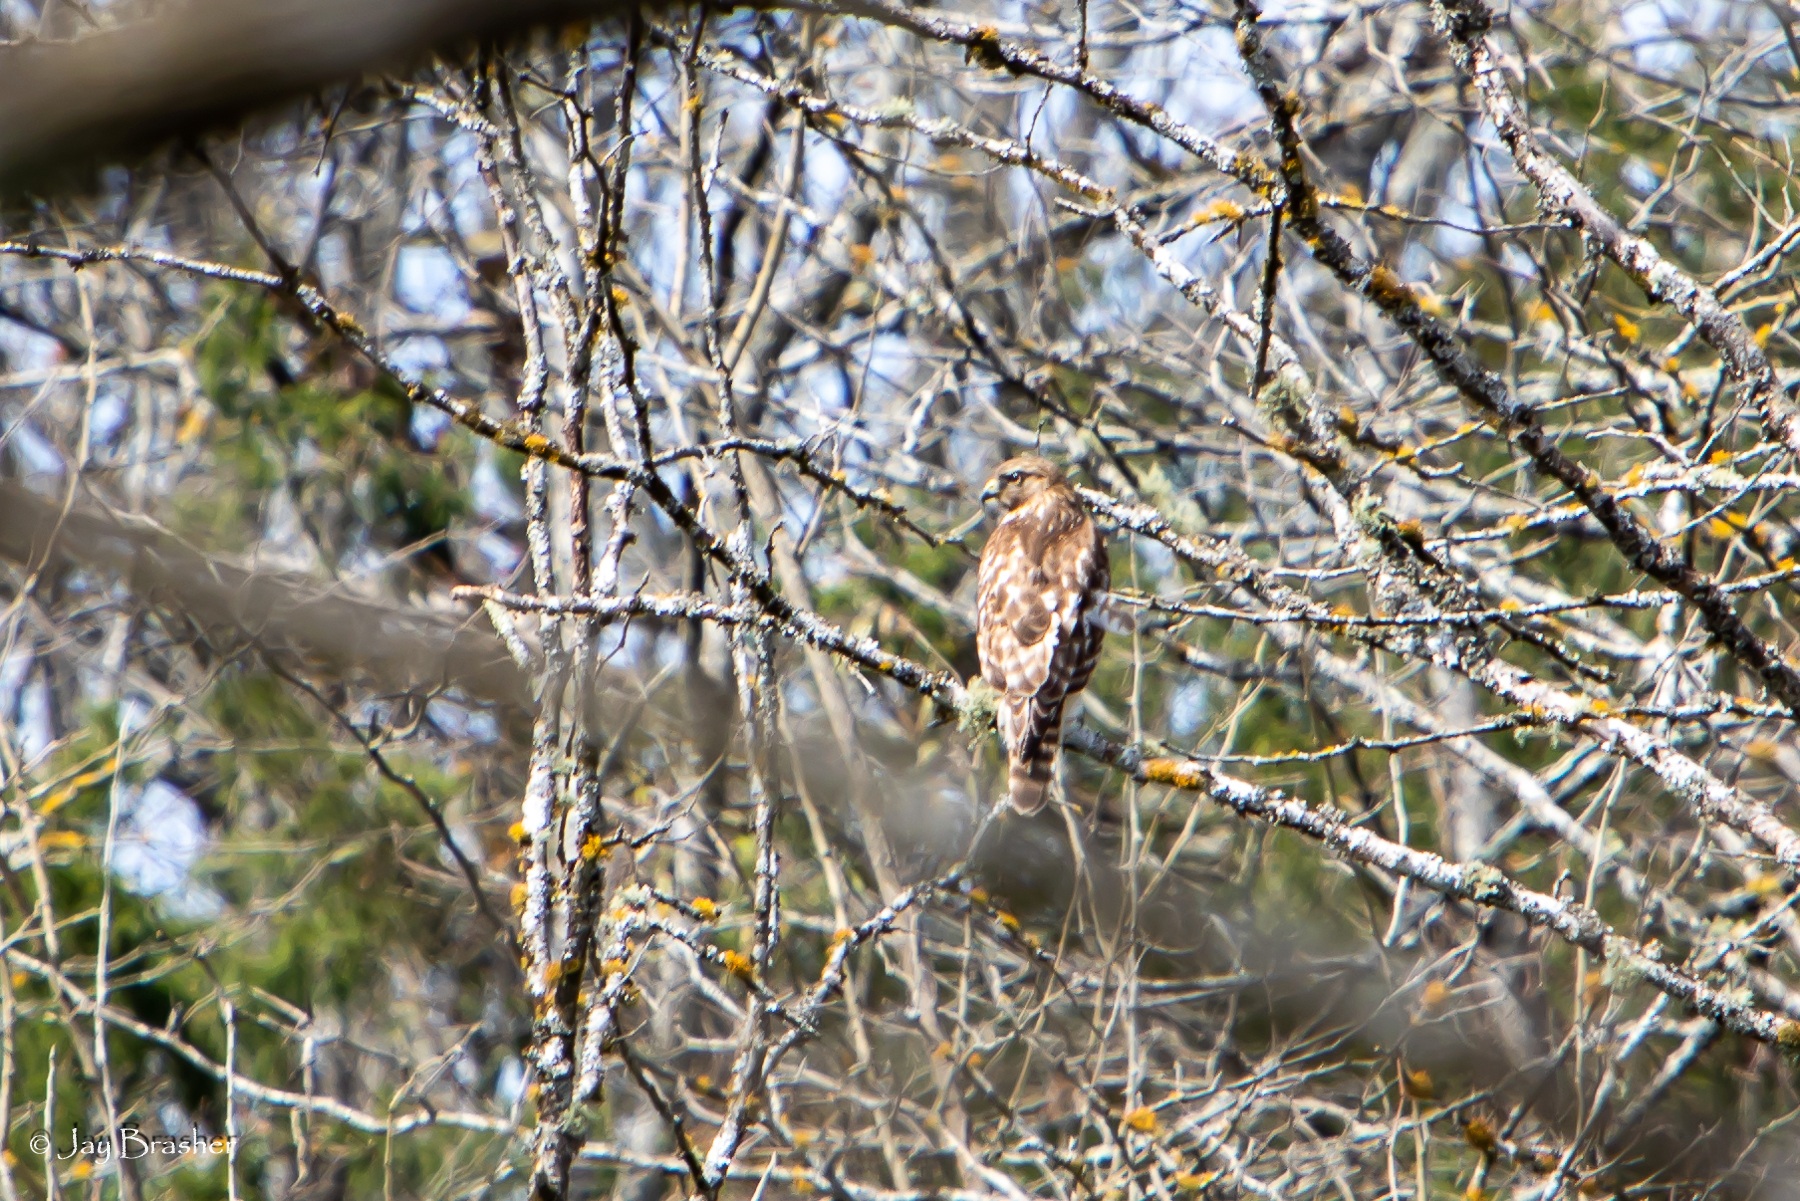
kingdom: Animalia
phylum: Chordata
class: Aves
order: Accipitriformes
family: Accipitridae
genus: Buteo
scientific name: Buteo lineatus
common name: Red-shouldered hawk
